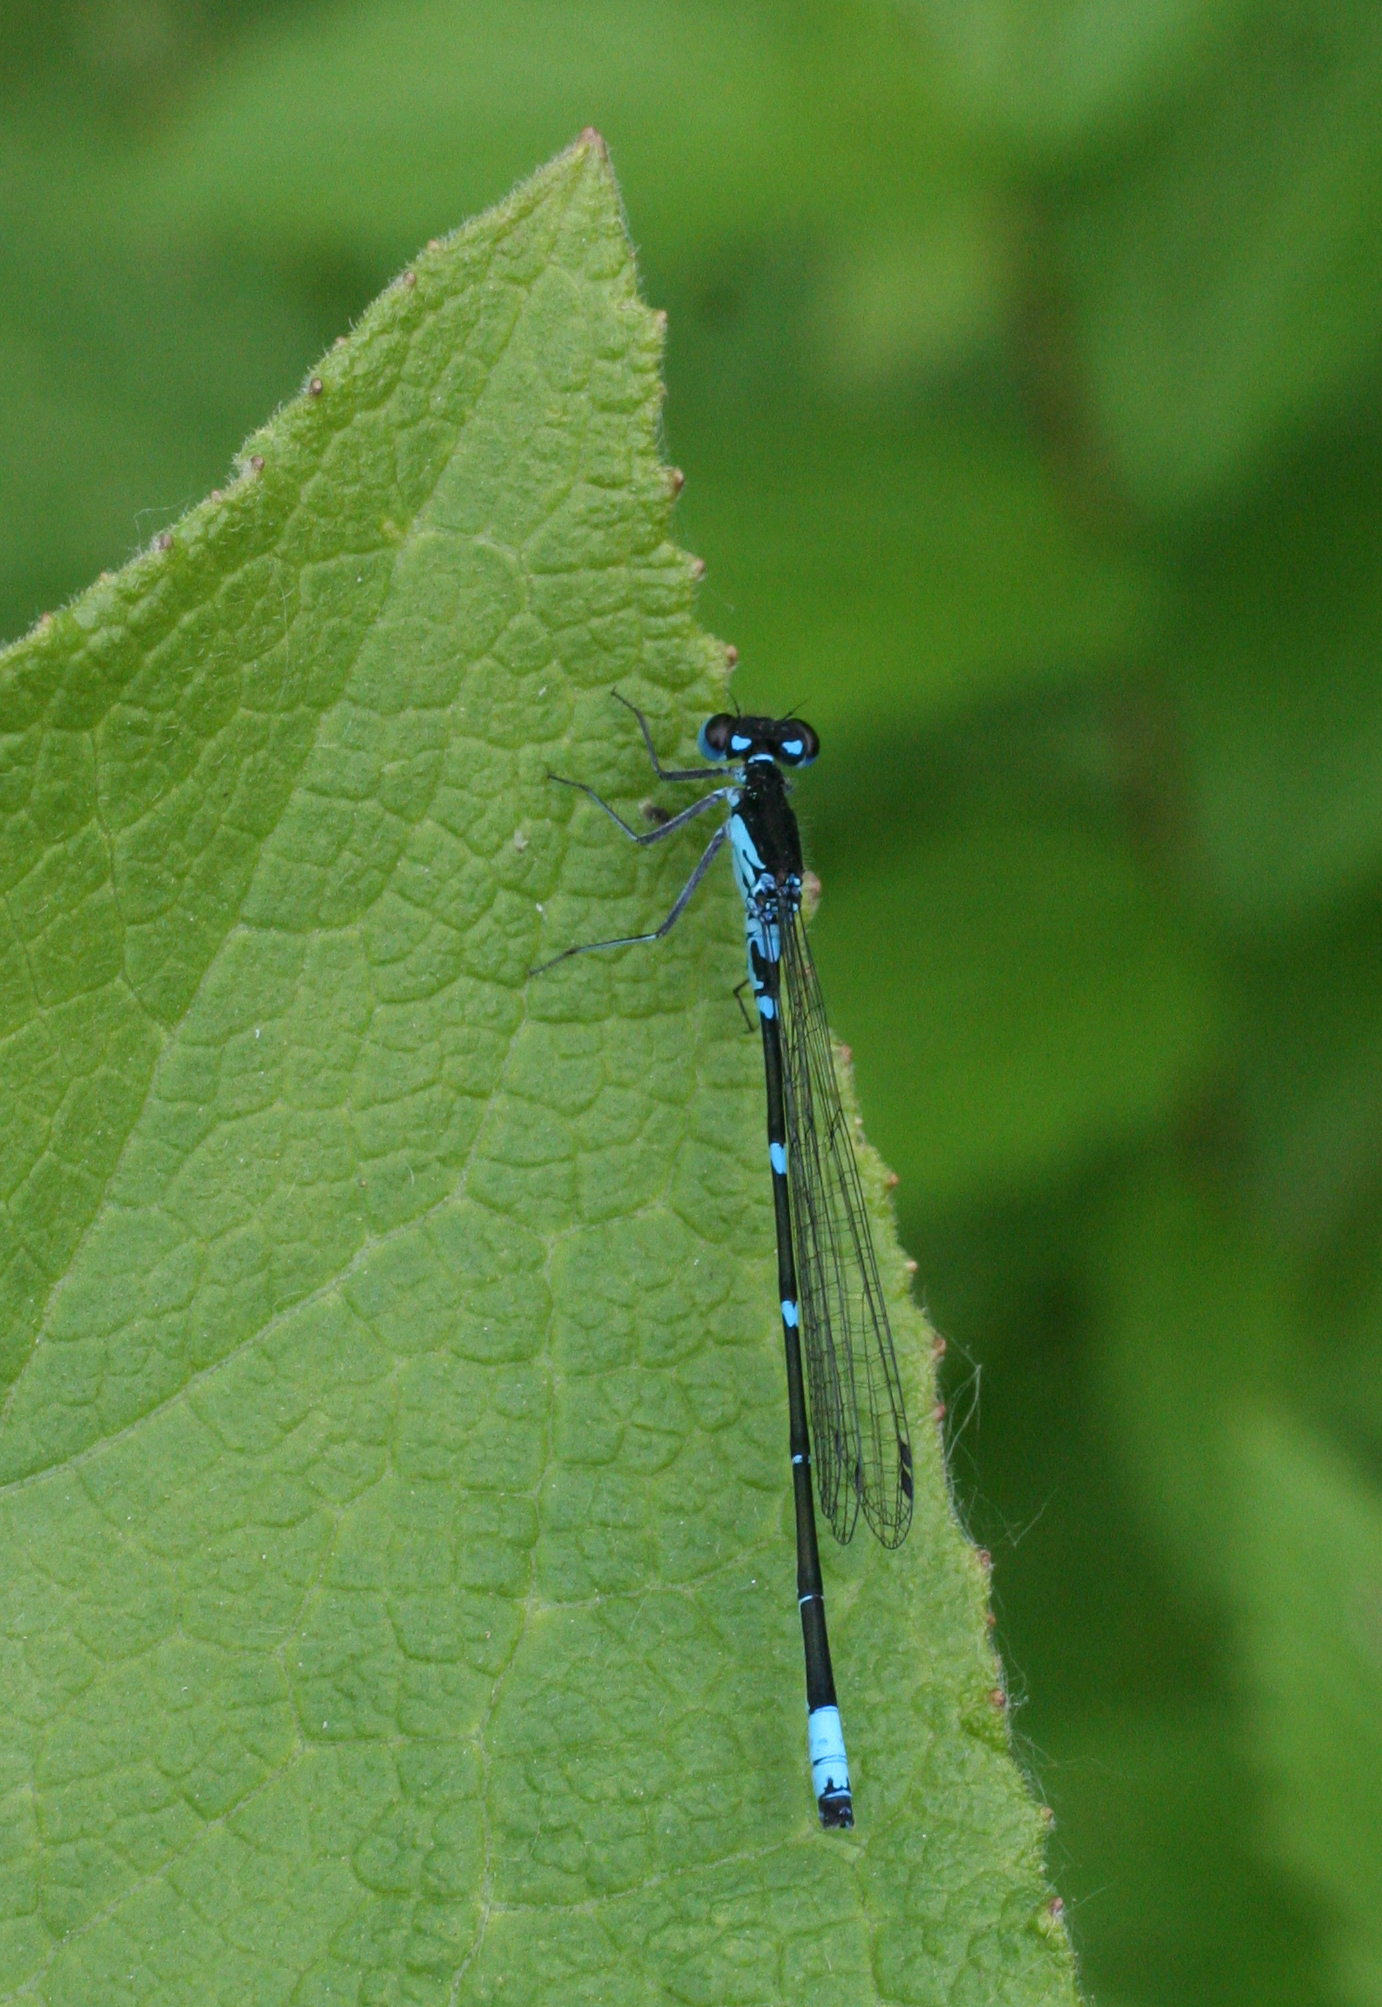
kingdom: Animalia
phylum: Arthropoda
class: Insecta
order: Odonata
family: Coenagrionidae
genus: Coenagrion
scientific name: Coenagrion pulchellum
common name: Variable bluet
